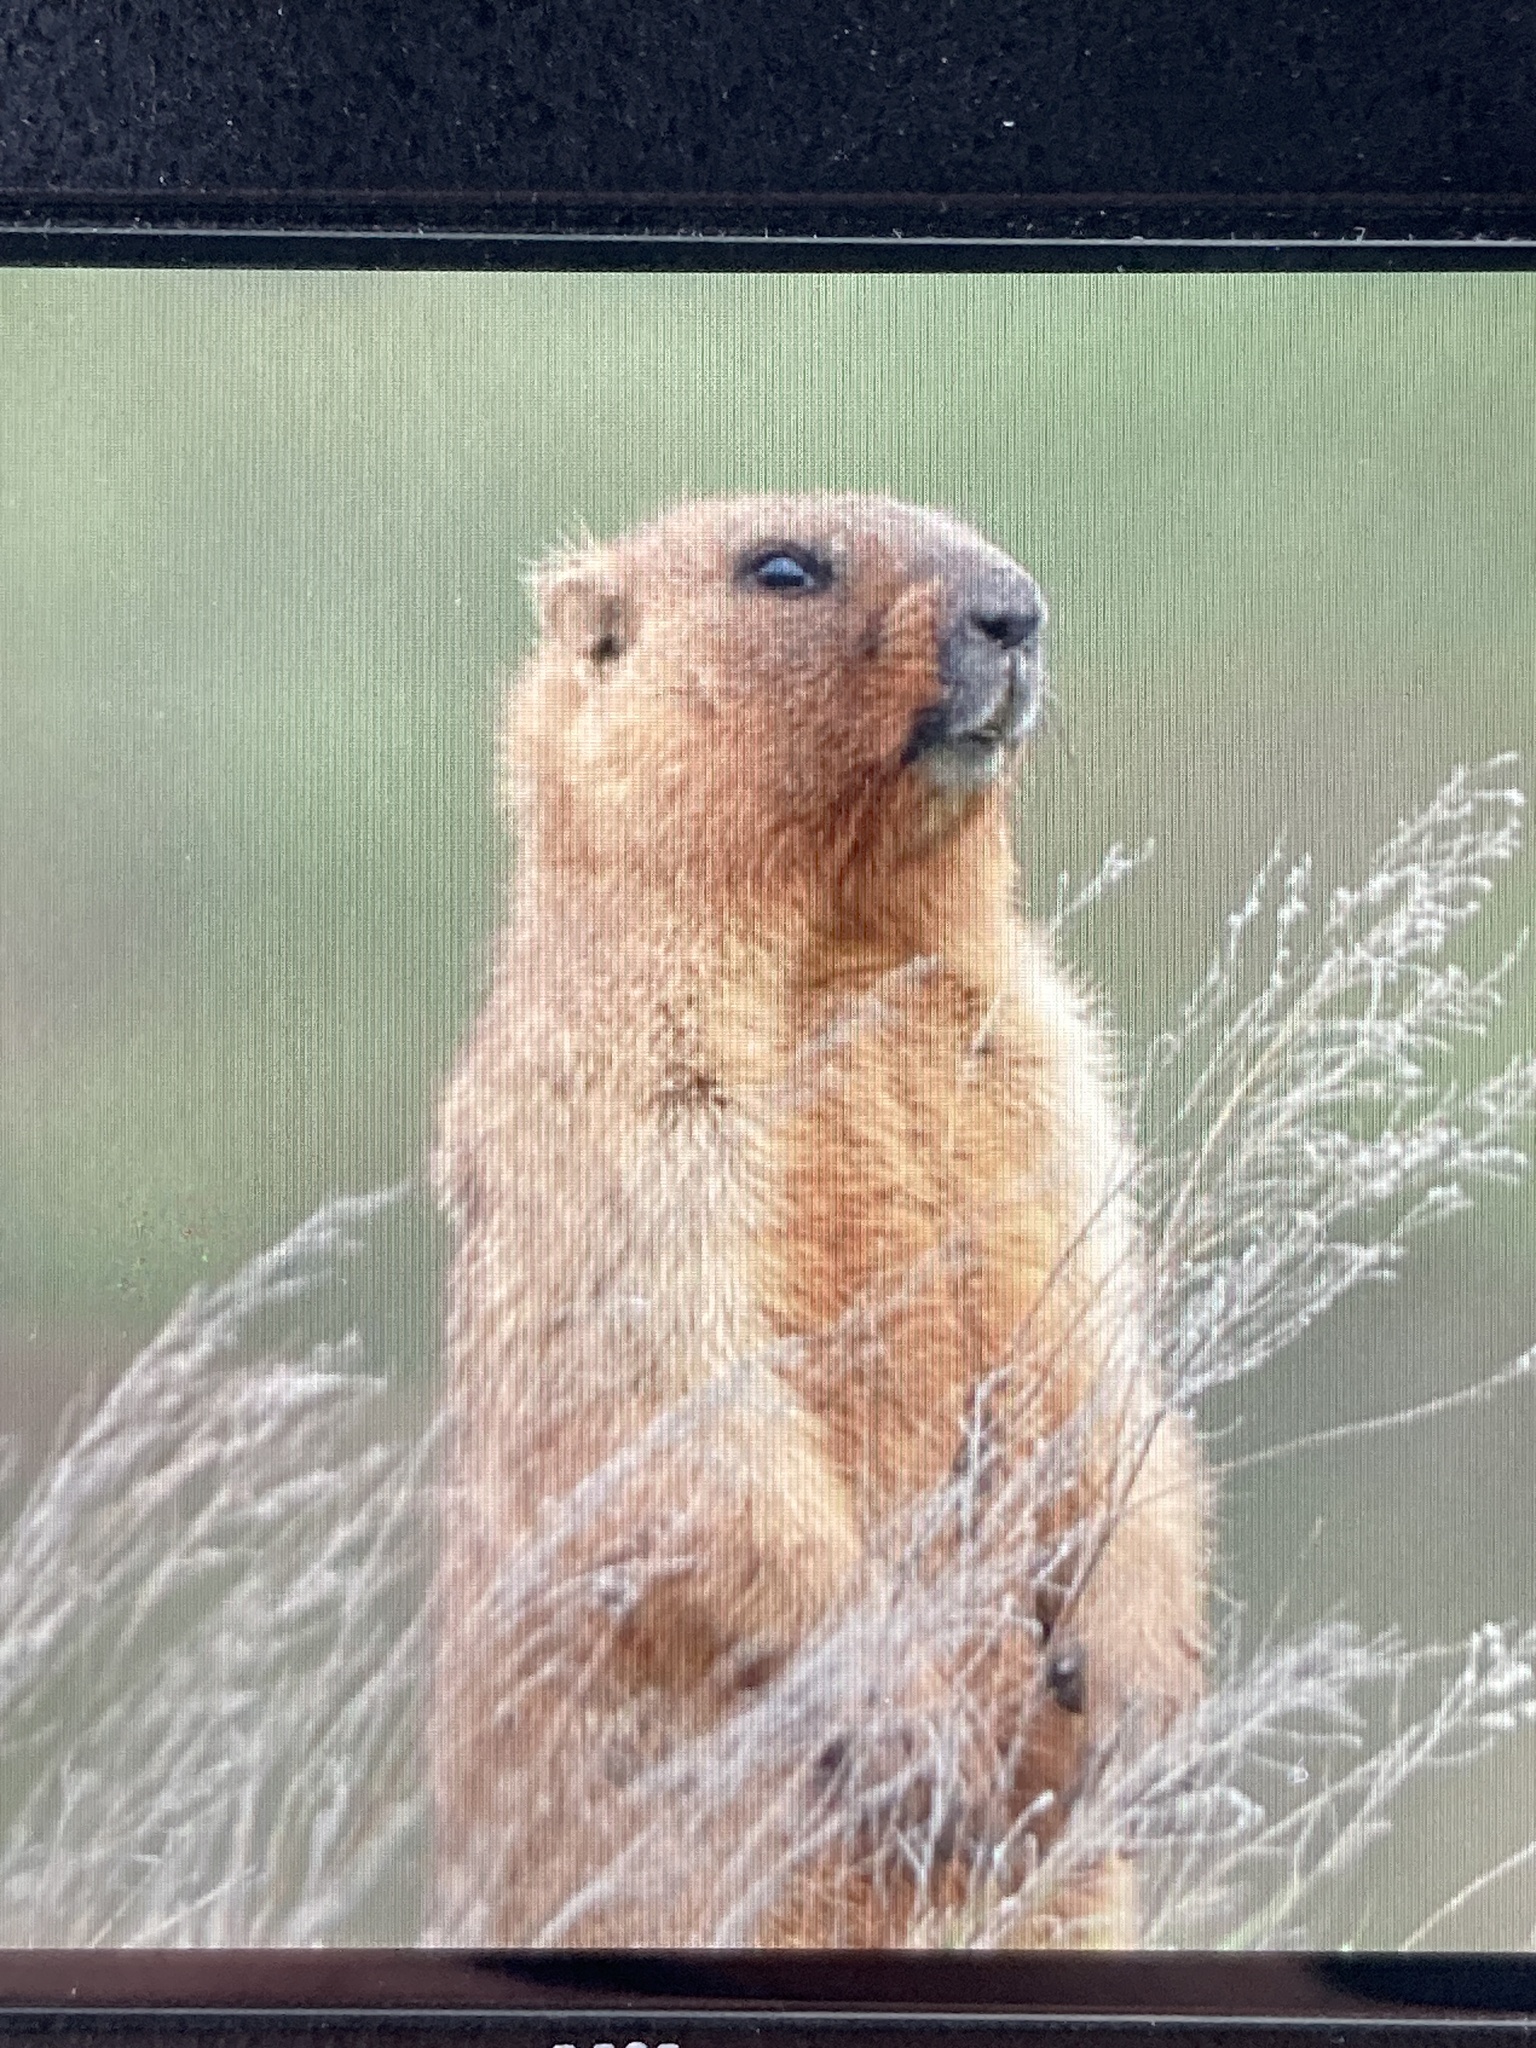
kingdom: Animalia
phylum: Chordata
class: Mammalia
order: Rodentia
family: Sciuridae
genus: Marmota
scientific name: Marmota bobak
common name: Bobak marmot
